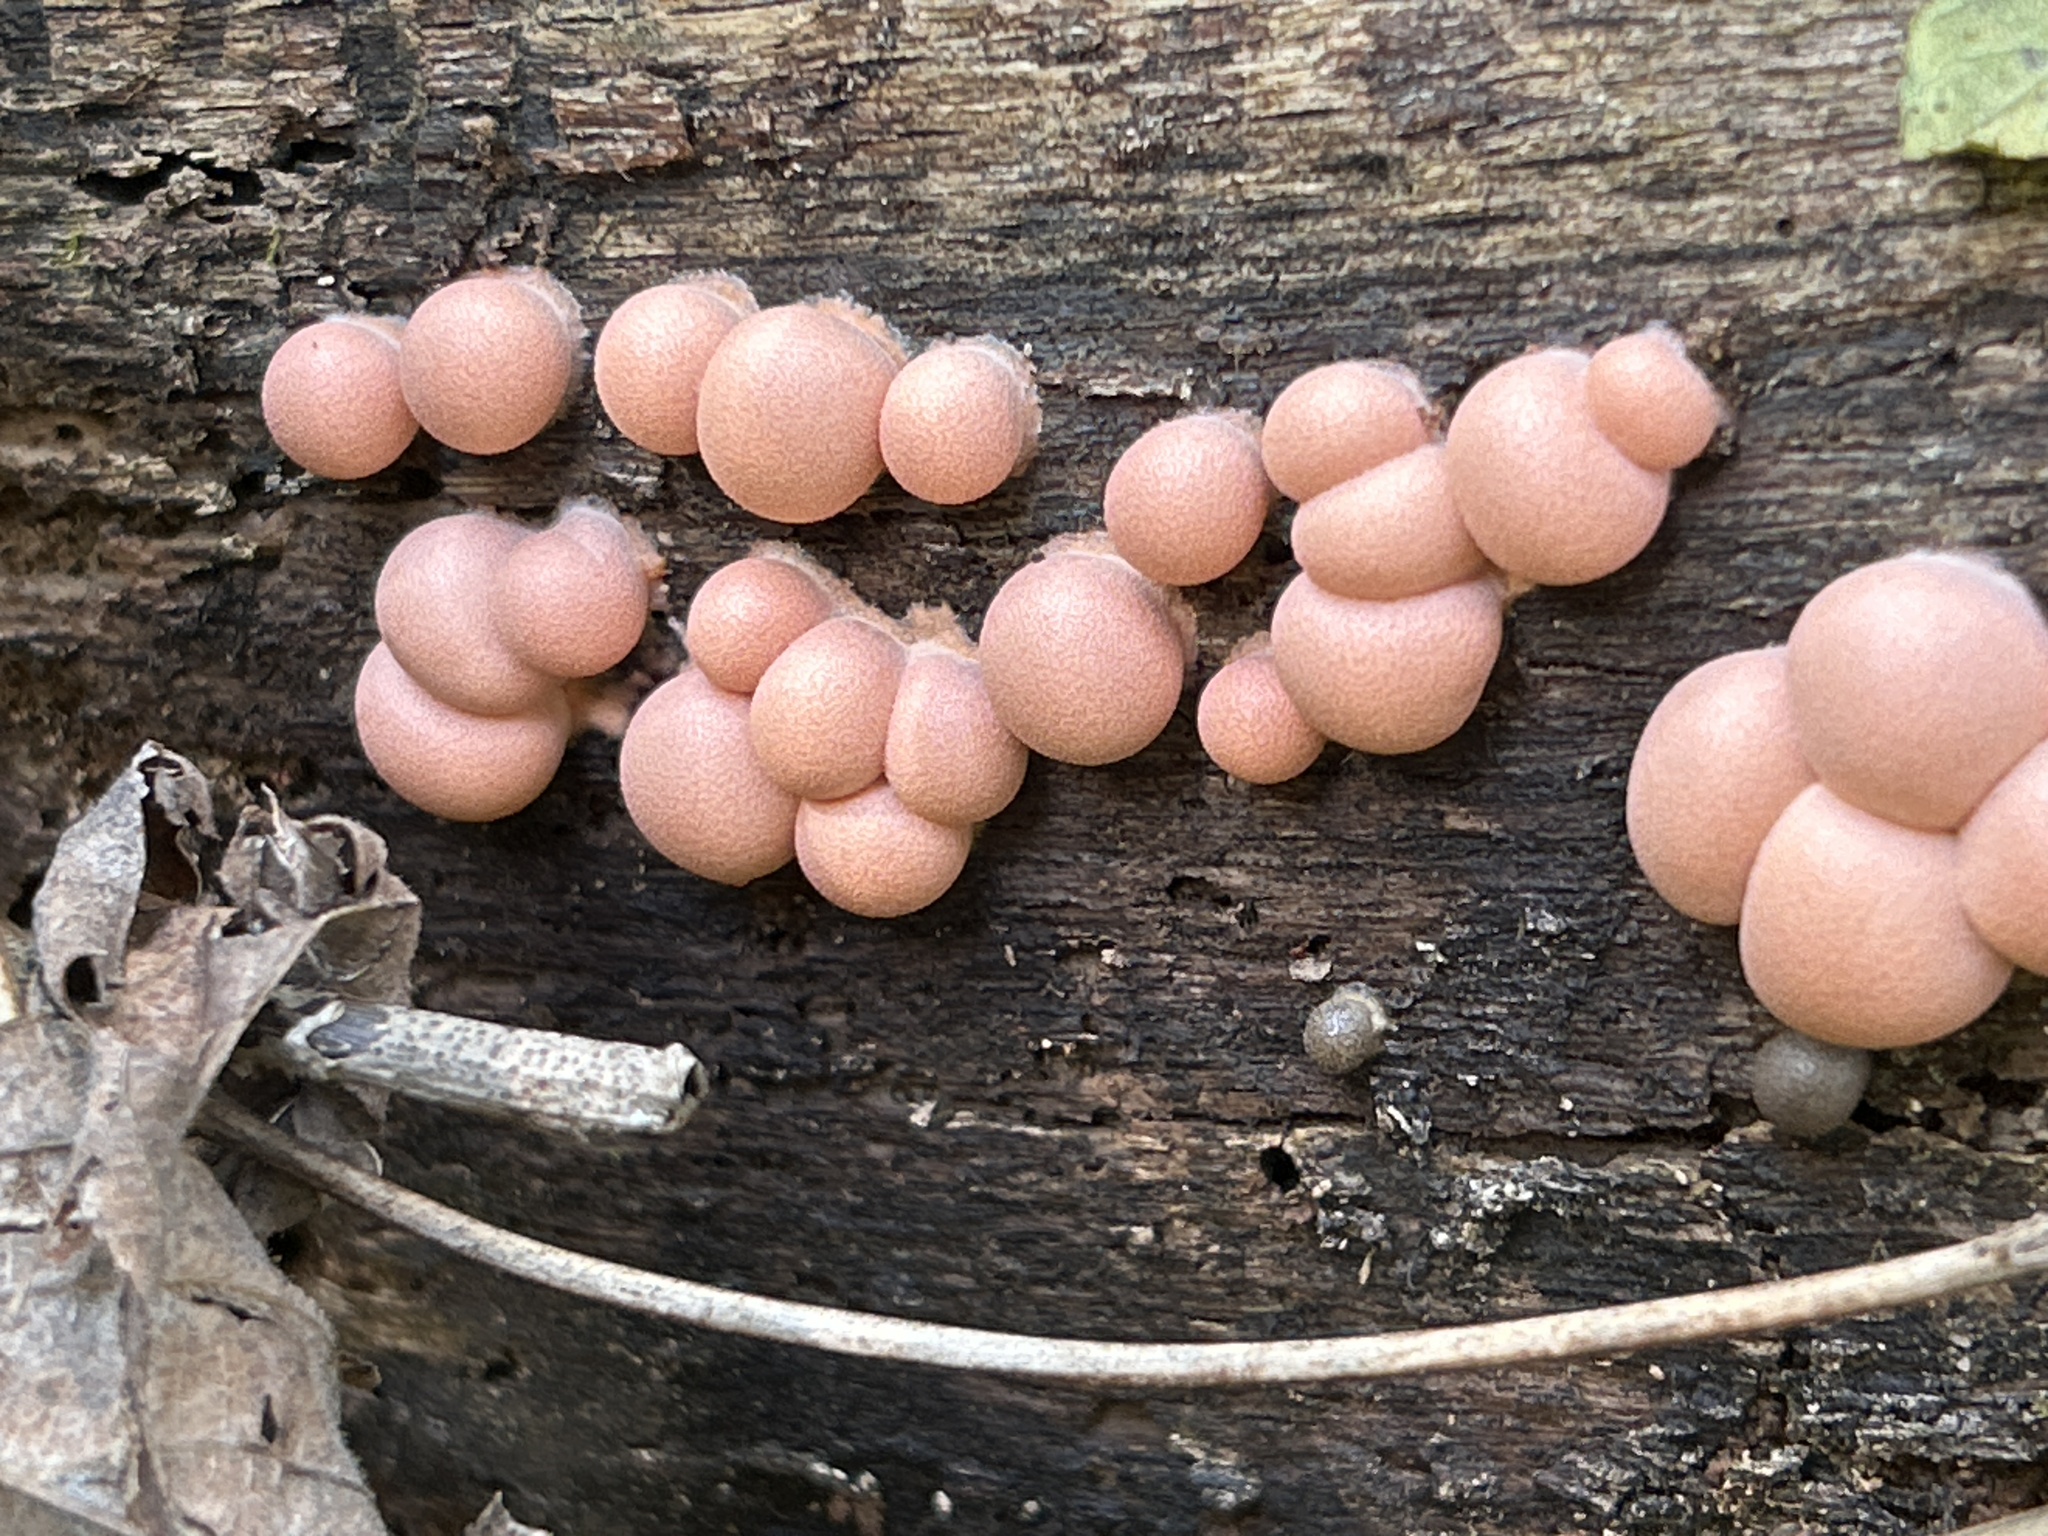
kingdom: Protozoa
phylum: Mycetozoa
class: Myxomycetes
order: Cribrariales
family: Tubiferaceae
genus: Lycogala
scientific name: Lycogala epidendrum
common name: Wolf's milk
